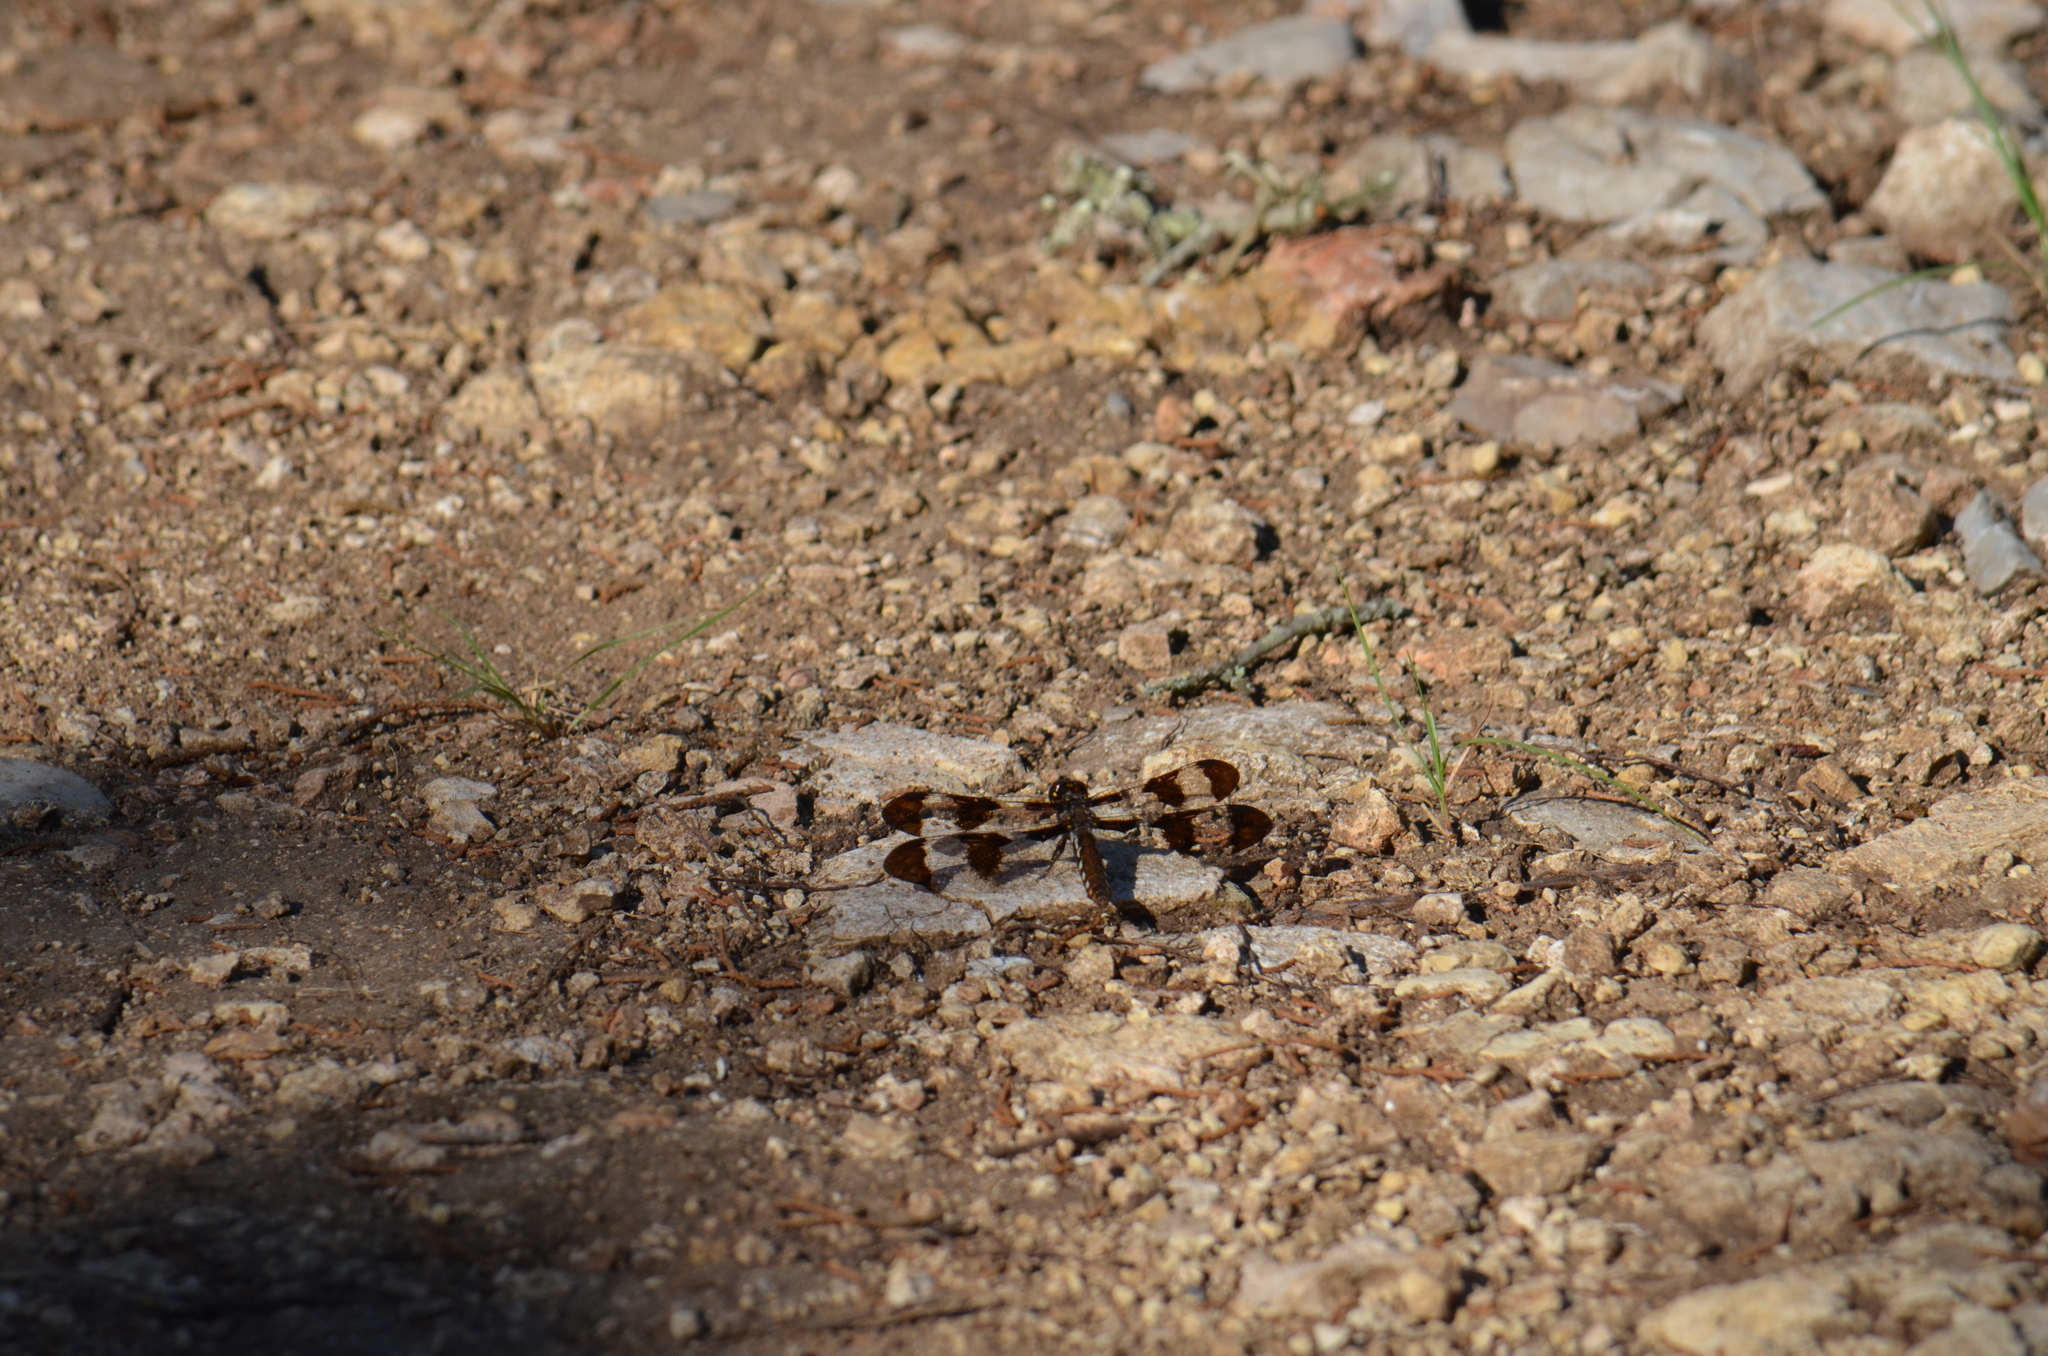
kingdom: Animalia
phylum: Arthropoda
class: Insecta
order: Odonata
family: Libellulidae
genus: Plathemis
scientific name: Plathemis lydia
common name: Common whitetail
